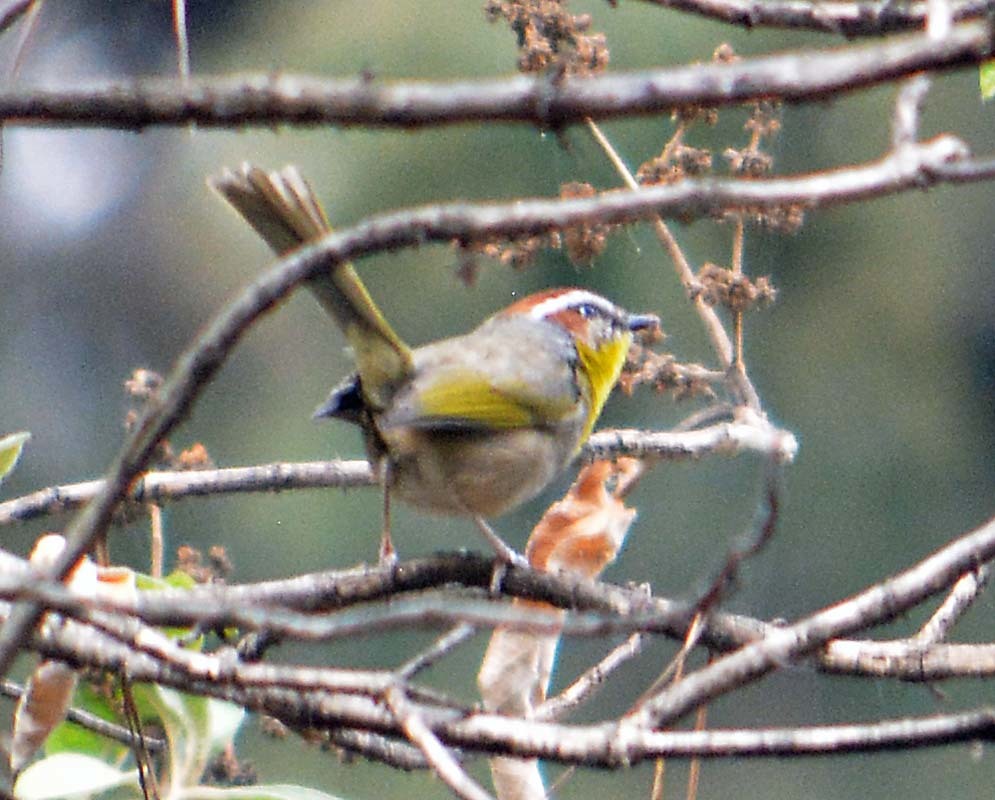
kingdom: Animalia
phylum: Chordata
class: Aves
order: Passeriformes
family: Parulidae
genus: Basileuterus
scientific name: Basileuterus rufifrons
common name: Rufous-capped warbler
